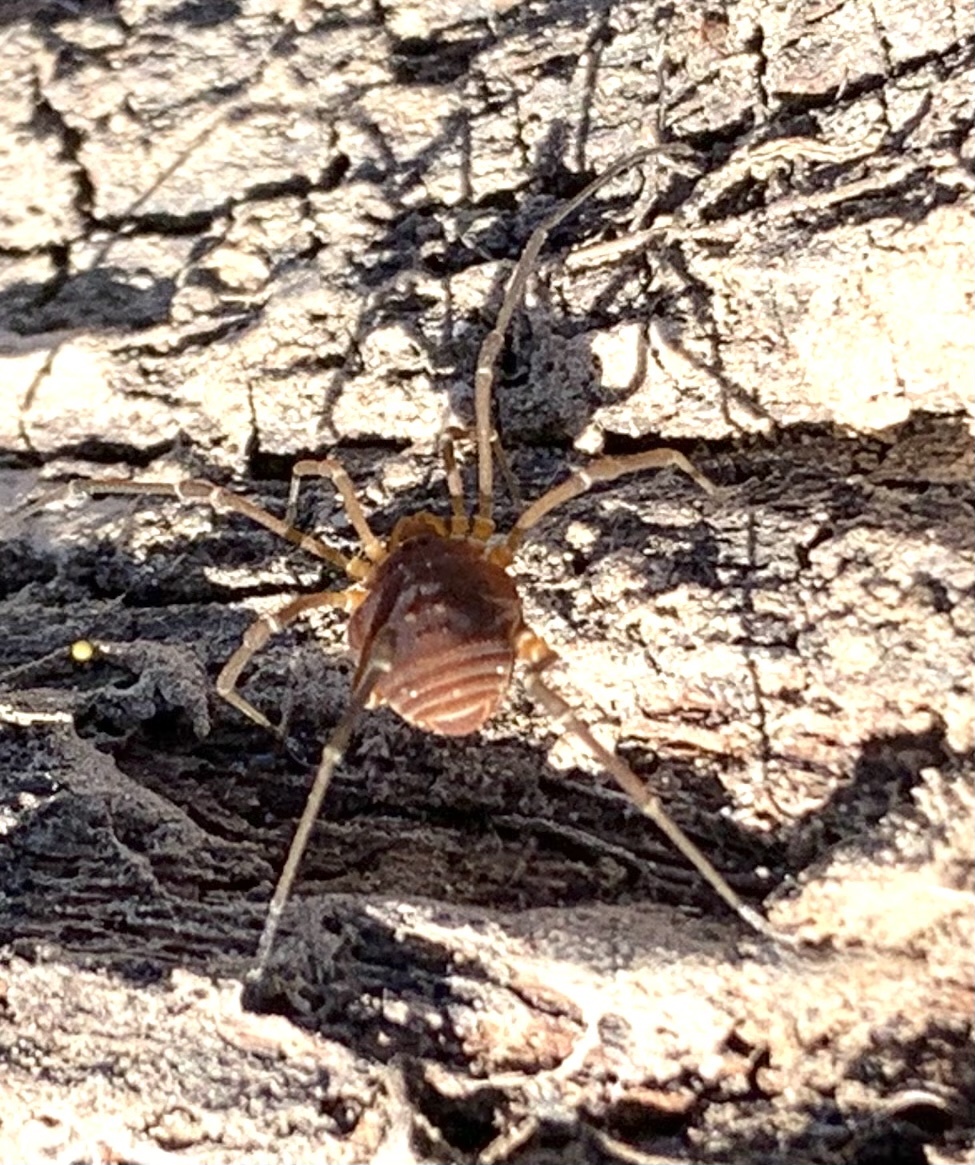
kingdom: Animalia
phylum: Arthropoda
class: Arachnida
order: Opiliones
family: Cosmetidae
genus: Libitioides
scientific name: Libitioides sayi
